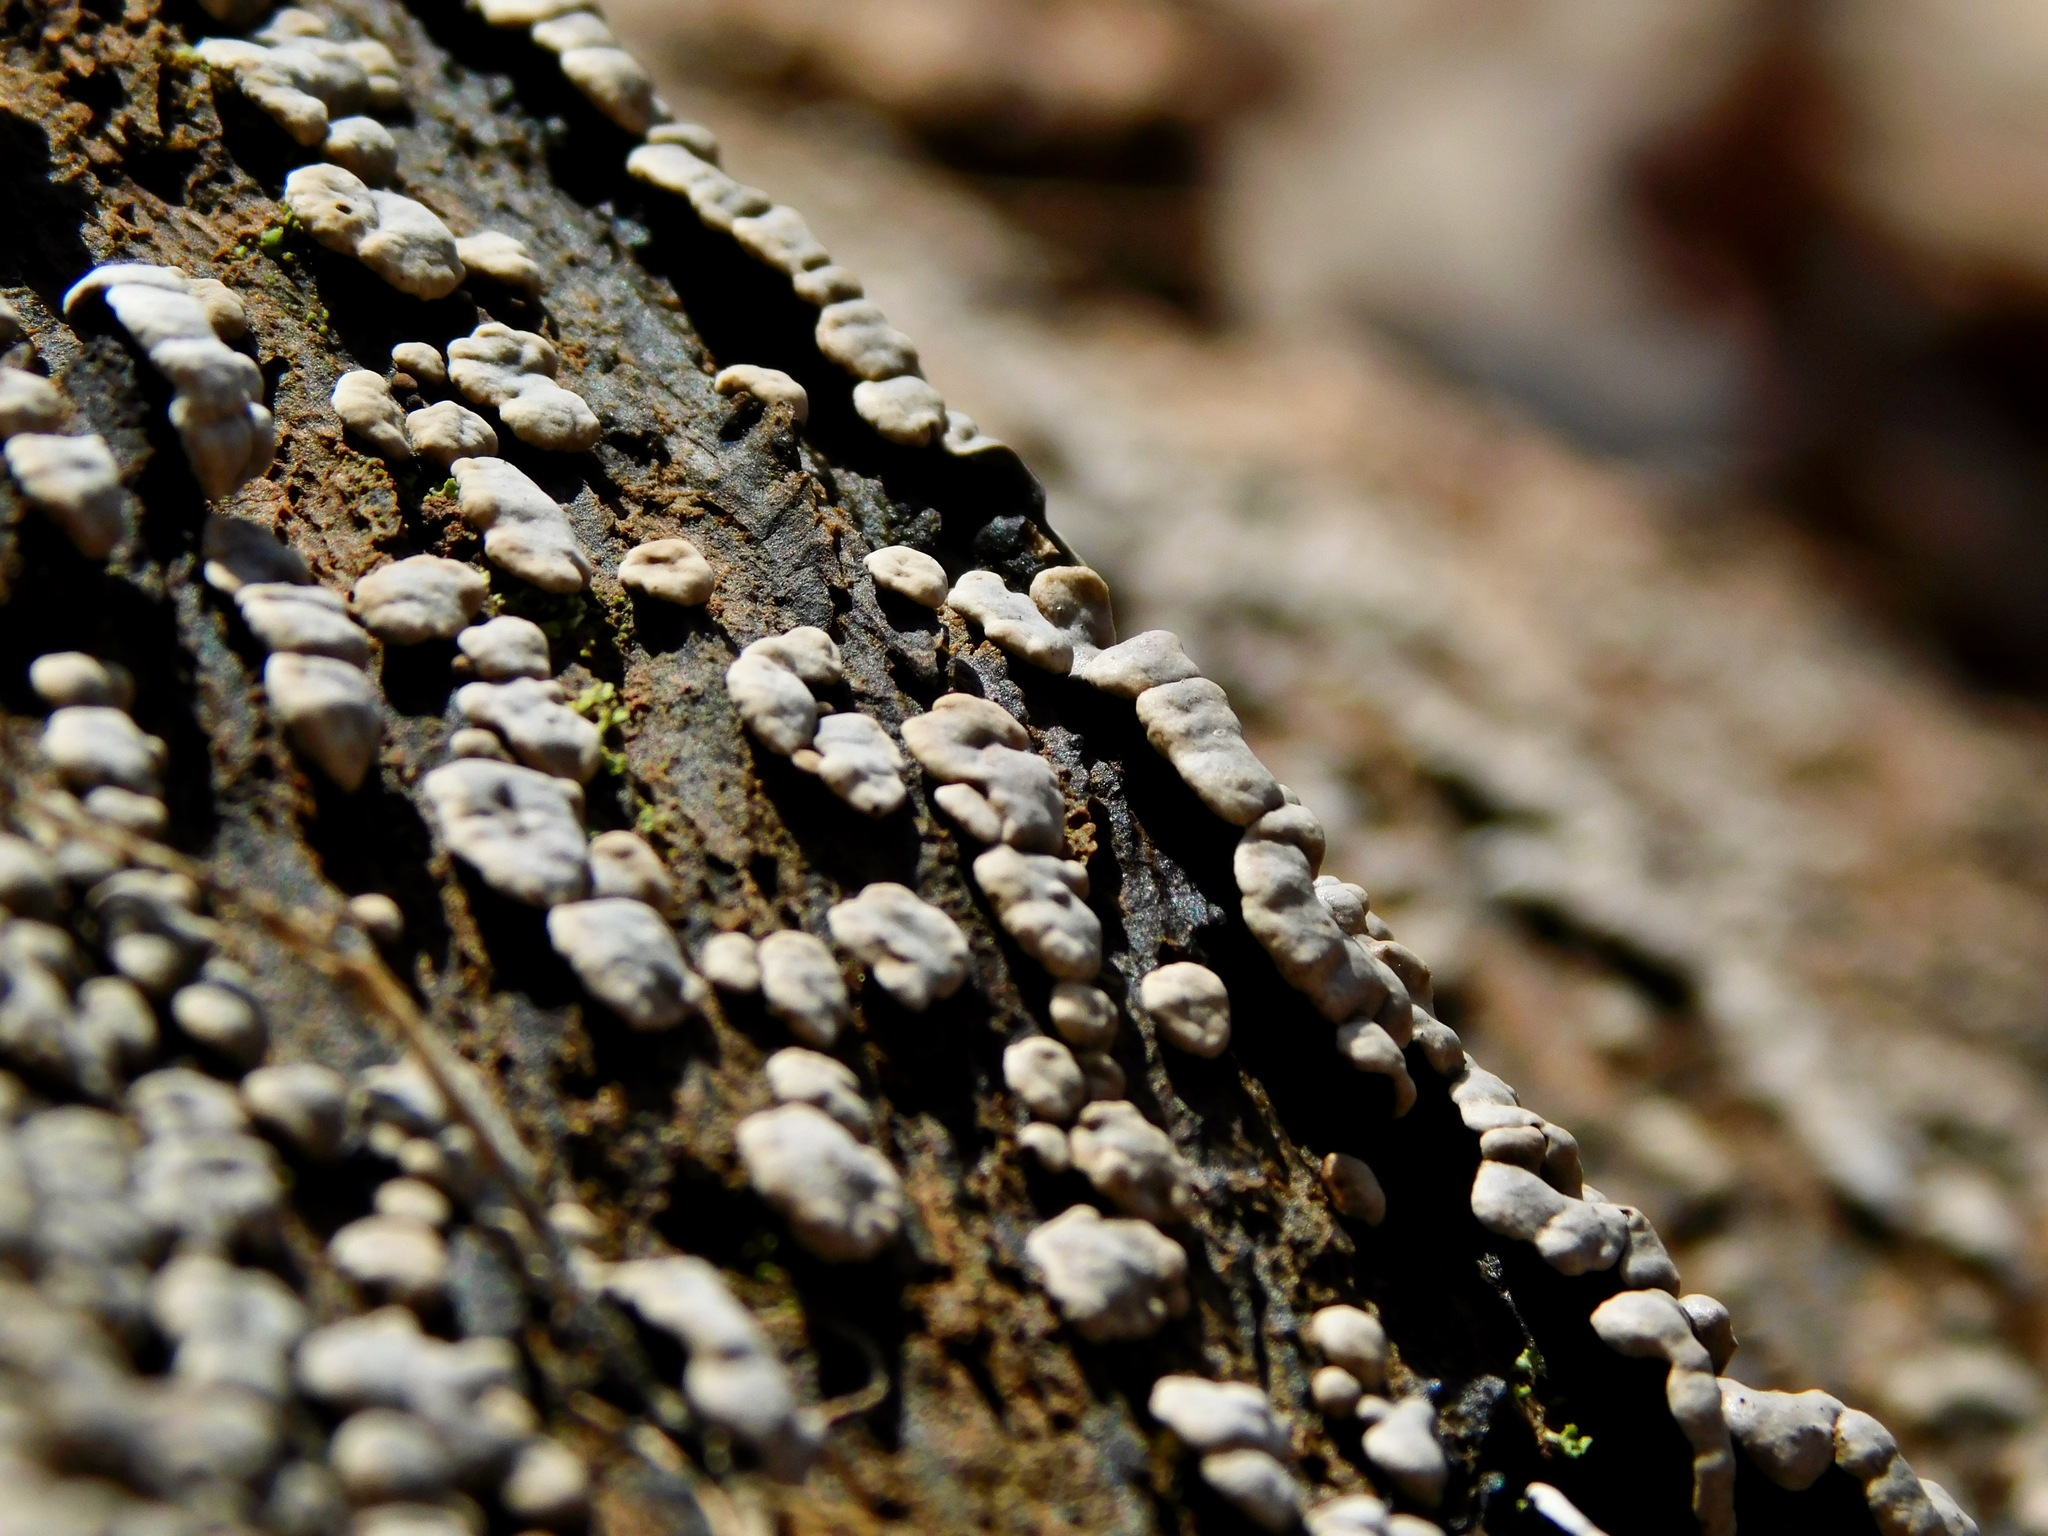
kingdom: Fungi
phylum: Basidiomycota
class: Agaricomycetes
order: Russulales
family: Stereaceae
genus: Xylobolus
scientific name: Xylobolus frustulatus
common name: Ceramic parchment
